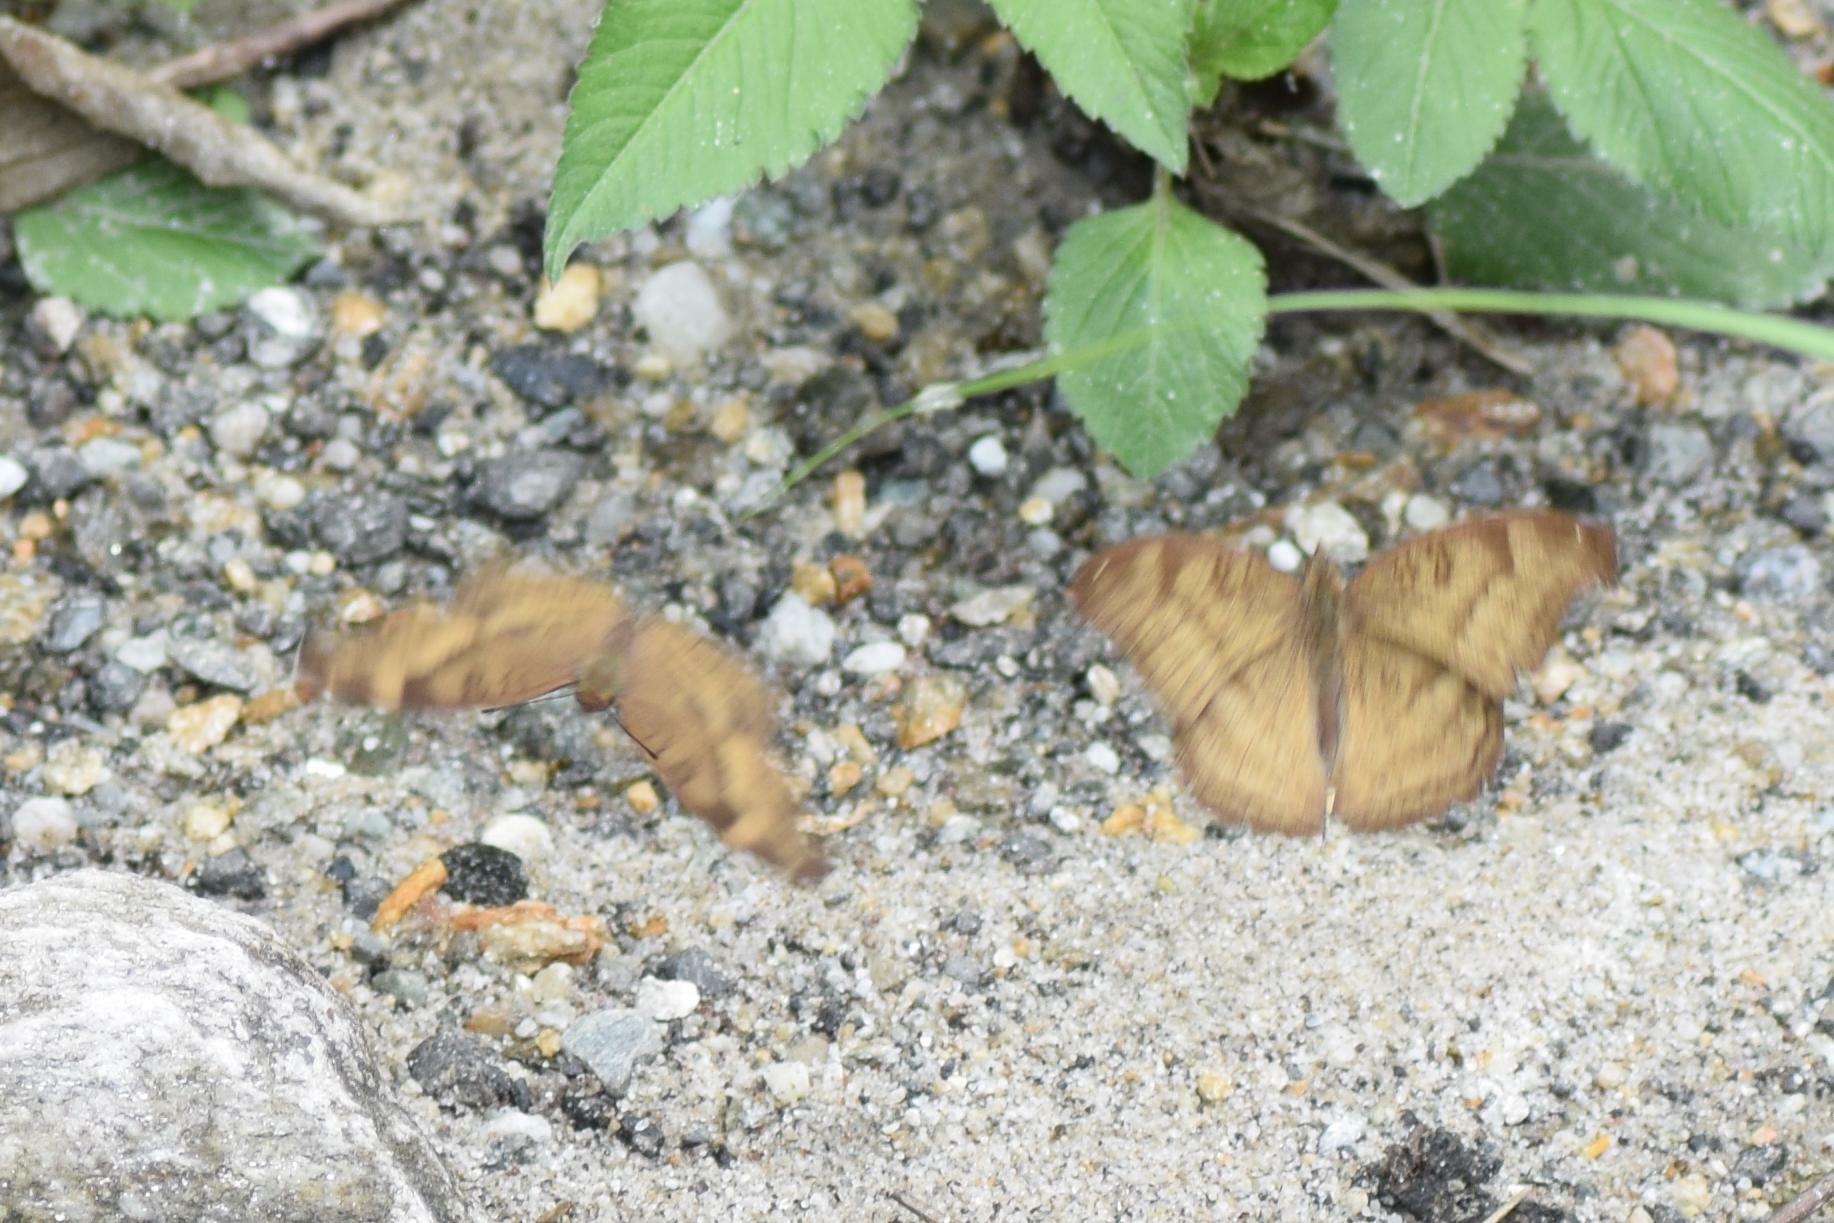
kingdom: Animalia
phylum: Arthropoda
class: Insecta
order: Lepidoptera
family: Nymphalidae
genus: Junonia
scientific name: Junonia iphita
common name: Chocolate pansy
